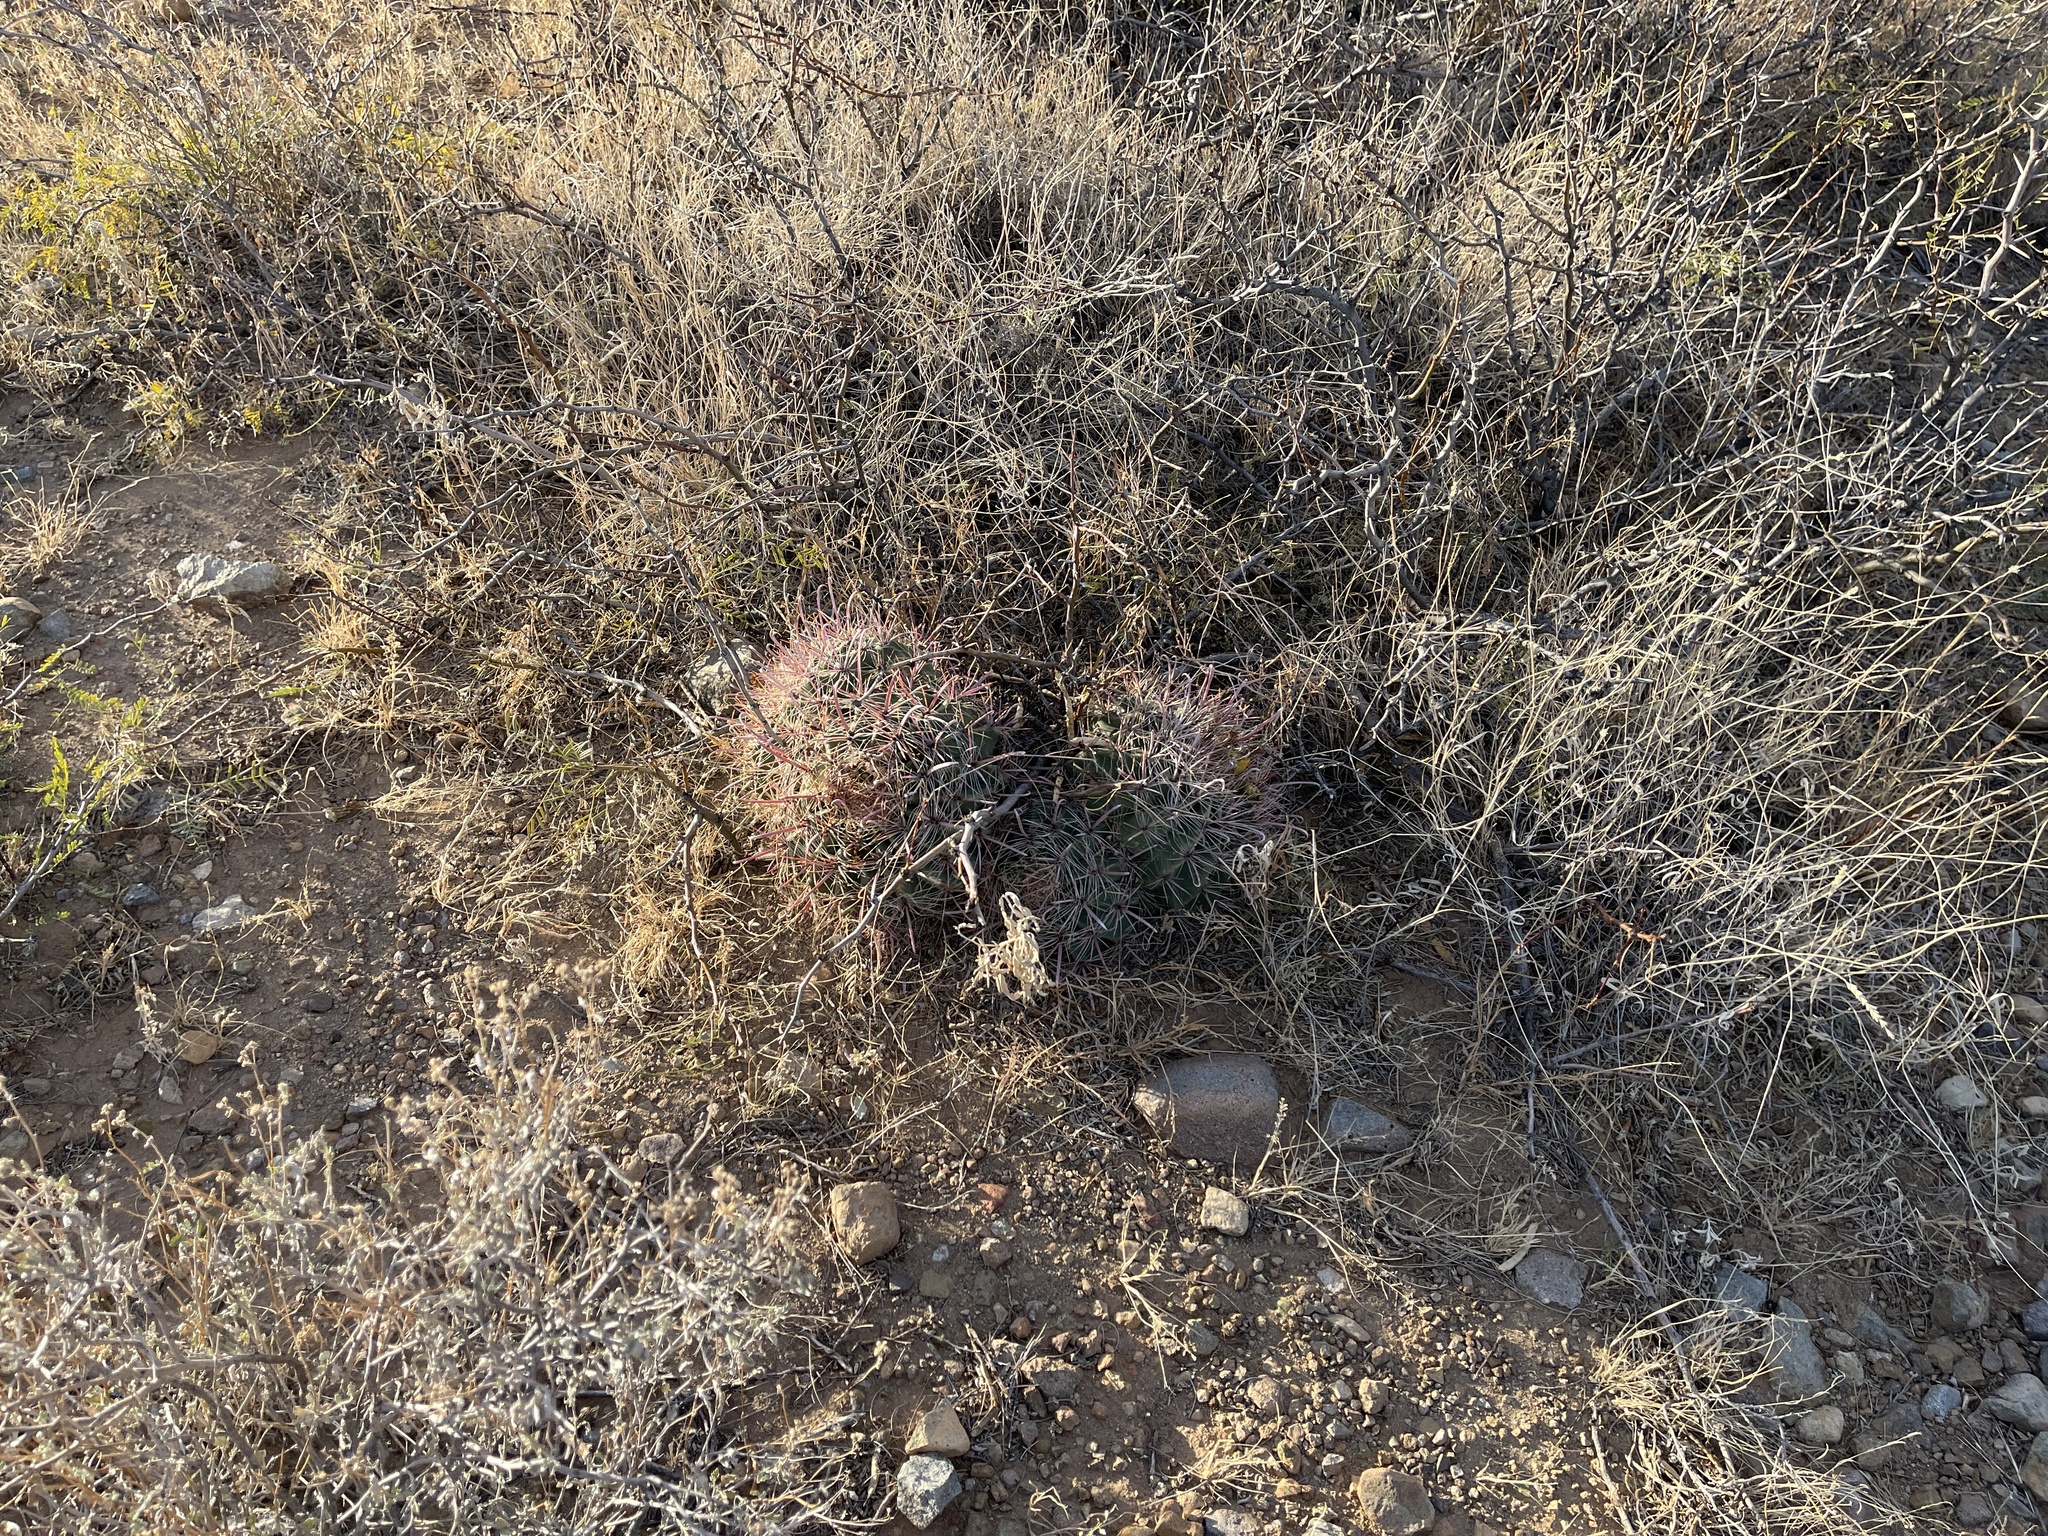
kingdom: Plantae
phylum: Tracheophyta
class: Magnoliopsida
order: Caryophyllales
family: Cactaceae
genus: Ferocactus
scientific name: Ferocactus wislizeni
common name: Candy barrel cactus
